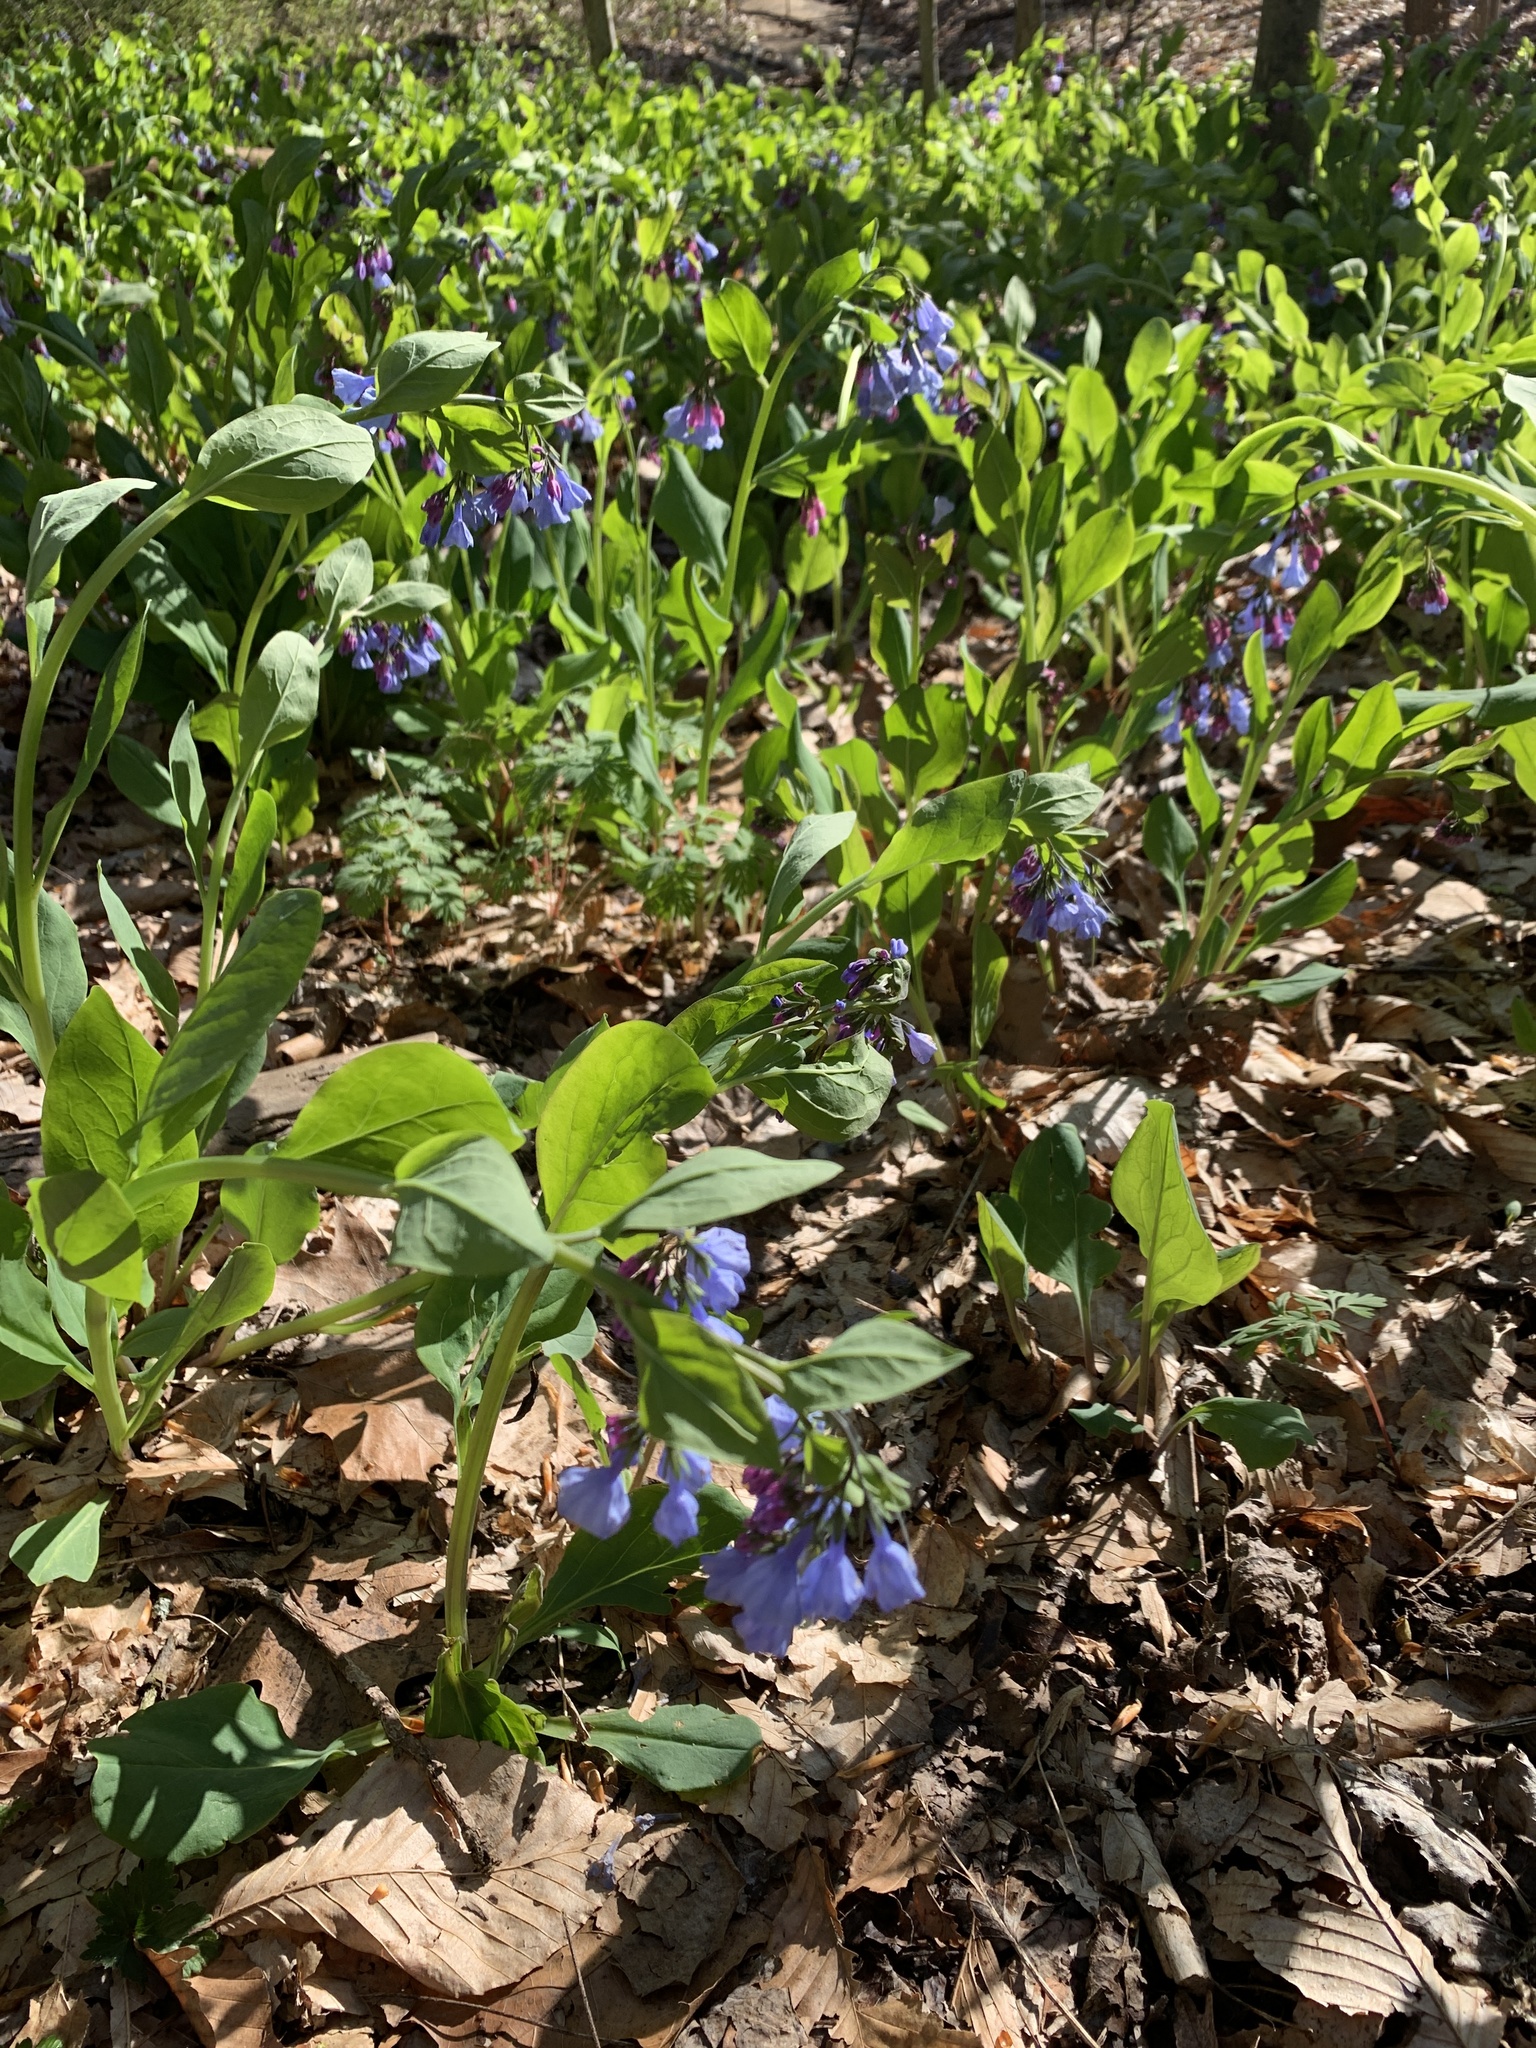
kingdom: Plantae
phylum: Tracheophyta
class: Magnoliopsida
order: Boraginales
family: Boraginaceae
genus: Mertensia
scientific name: Mertensia virginica
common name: Virginia bluebells
